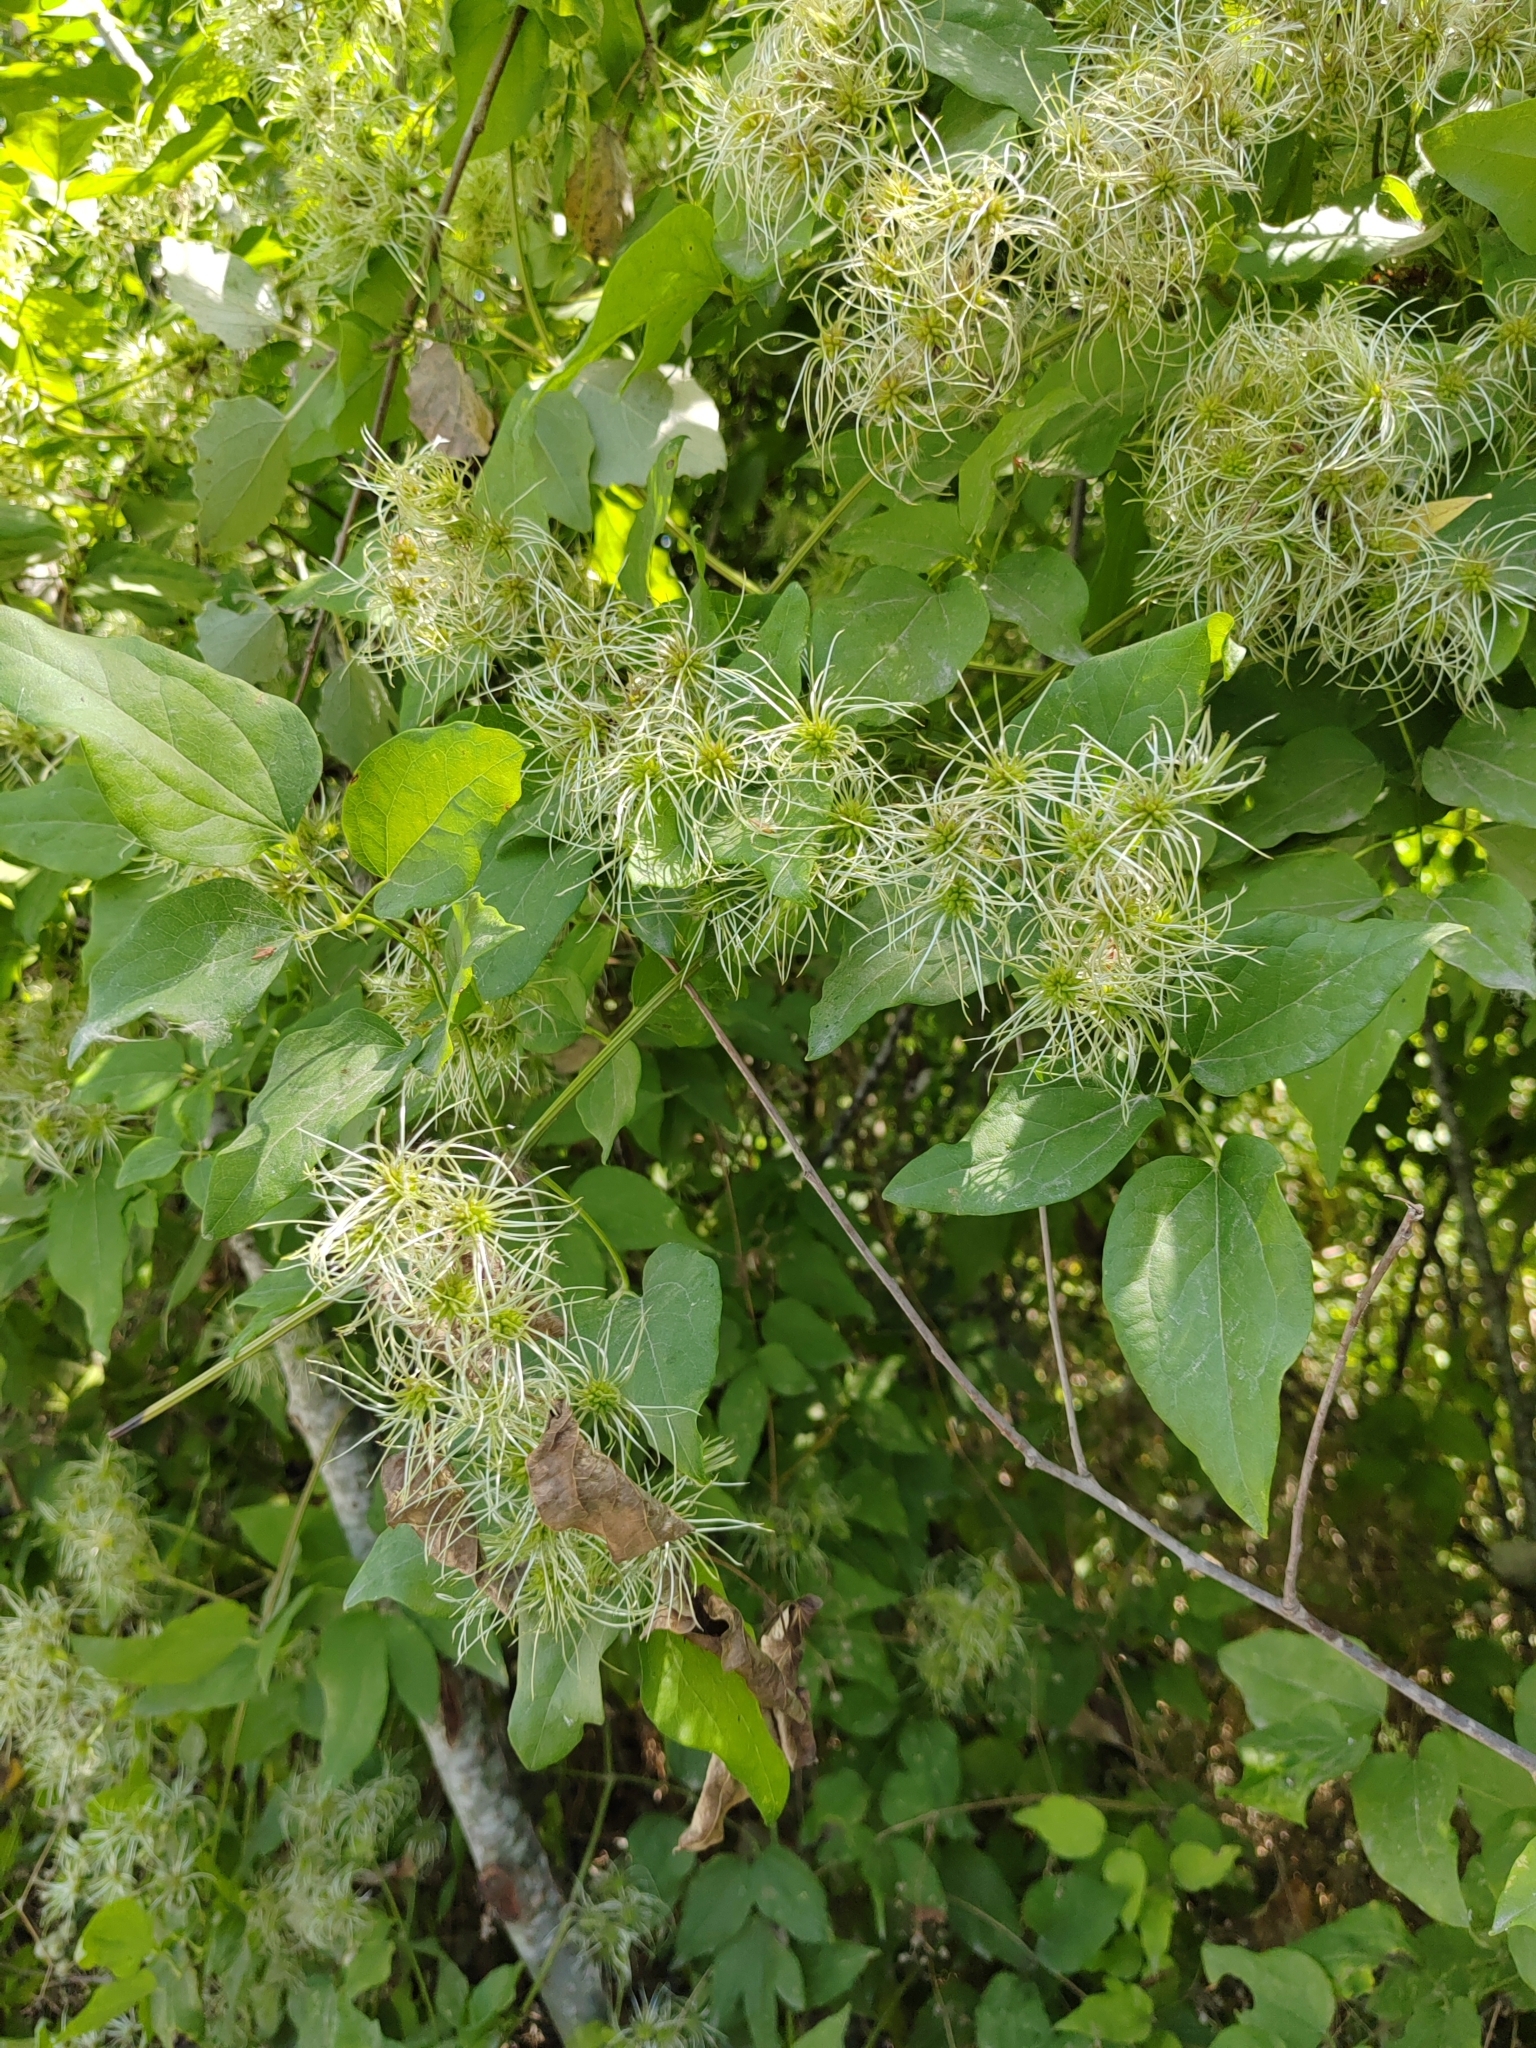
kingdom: Plantae
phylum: Tracheophyta
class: Magnoliopsida
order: Ranunculales
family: Ranunculaceae
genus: Clematis
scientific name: Clematis vitalba
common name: Evergreen clematis
